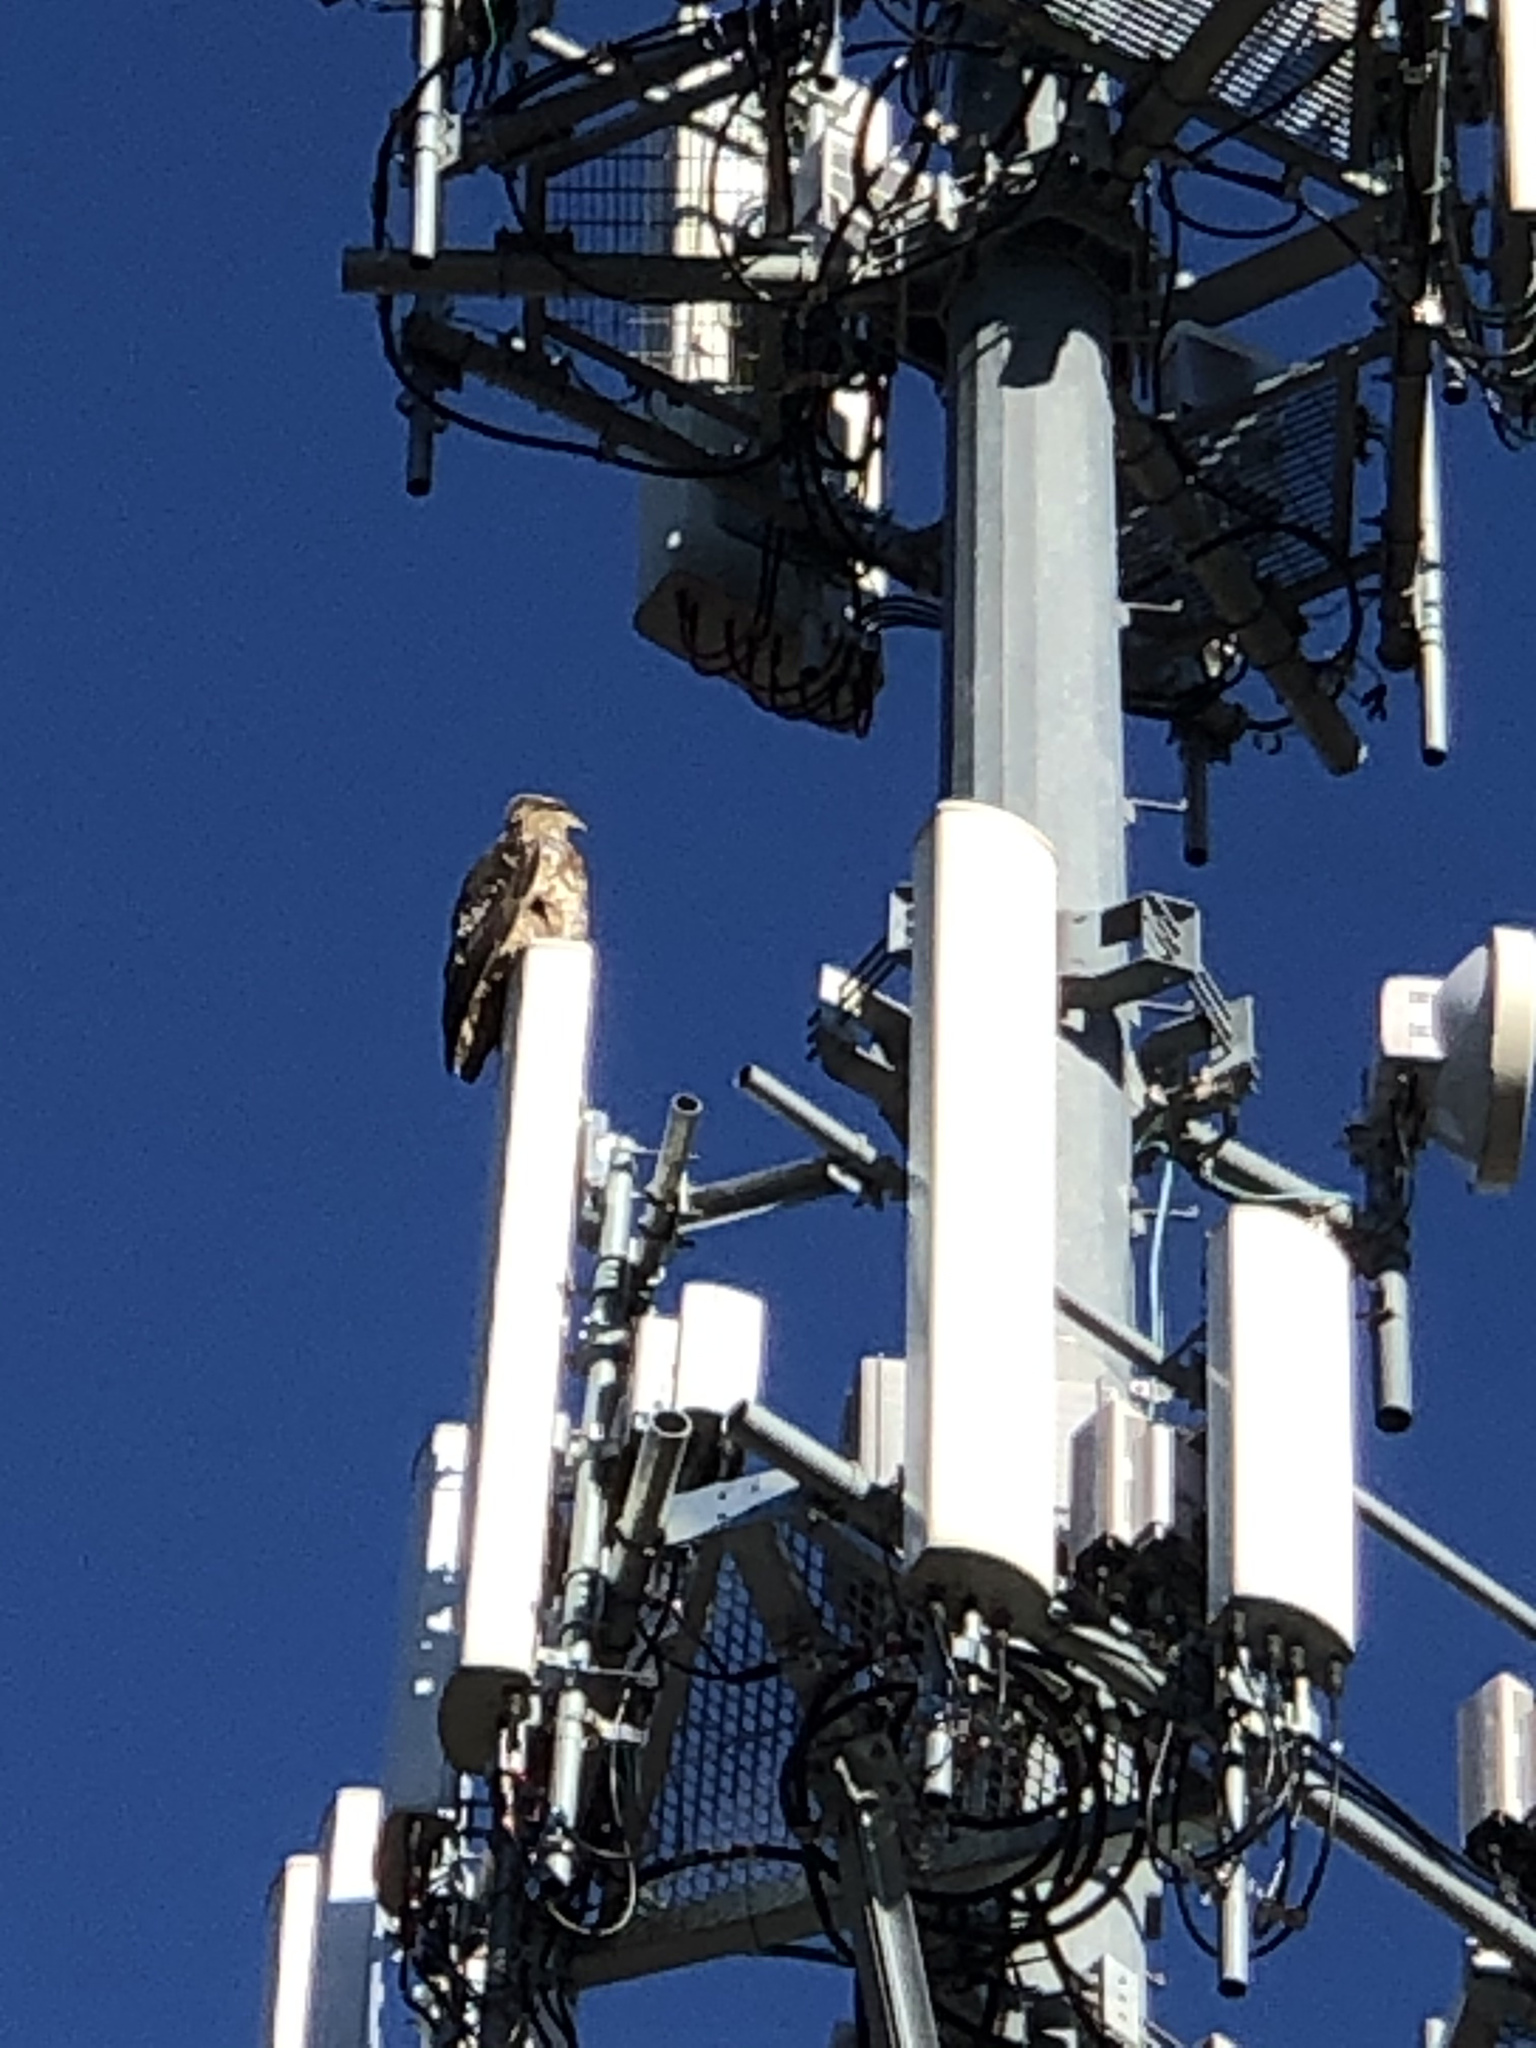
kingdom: Animalia
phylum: Chordata
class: Aves
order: Accipitriformes
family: Accipitridae
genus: Buteo
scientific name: Buteo jamaicensis
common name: Red-tailed hawk
